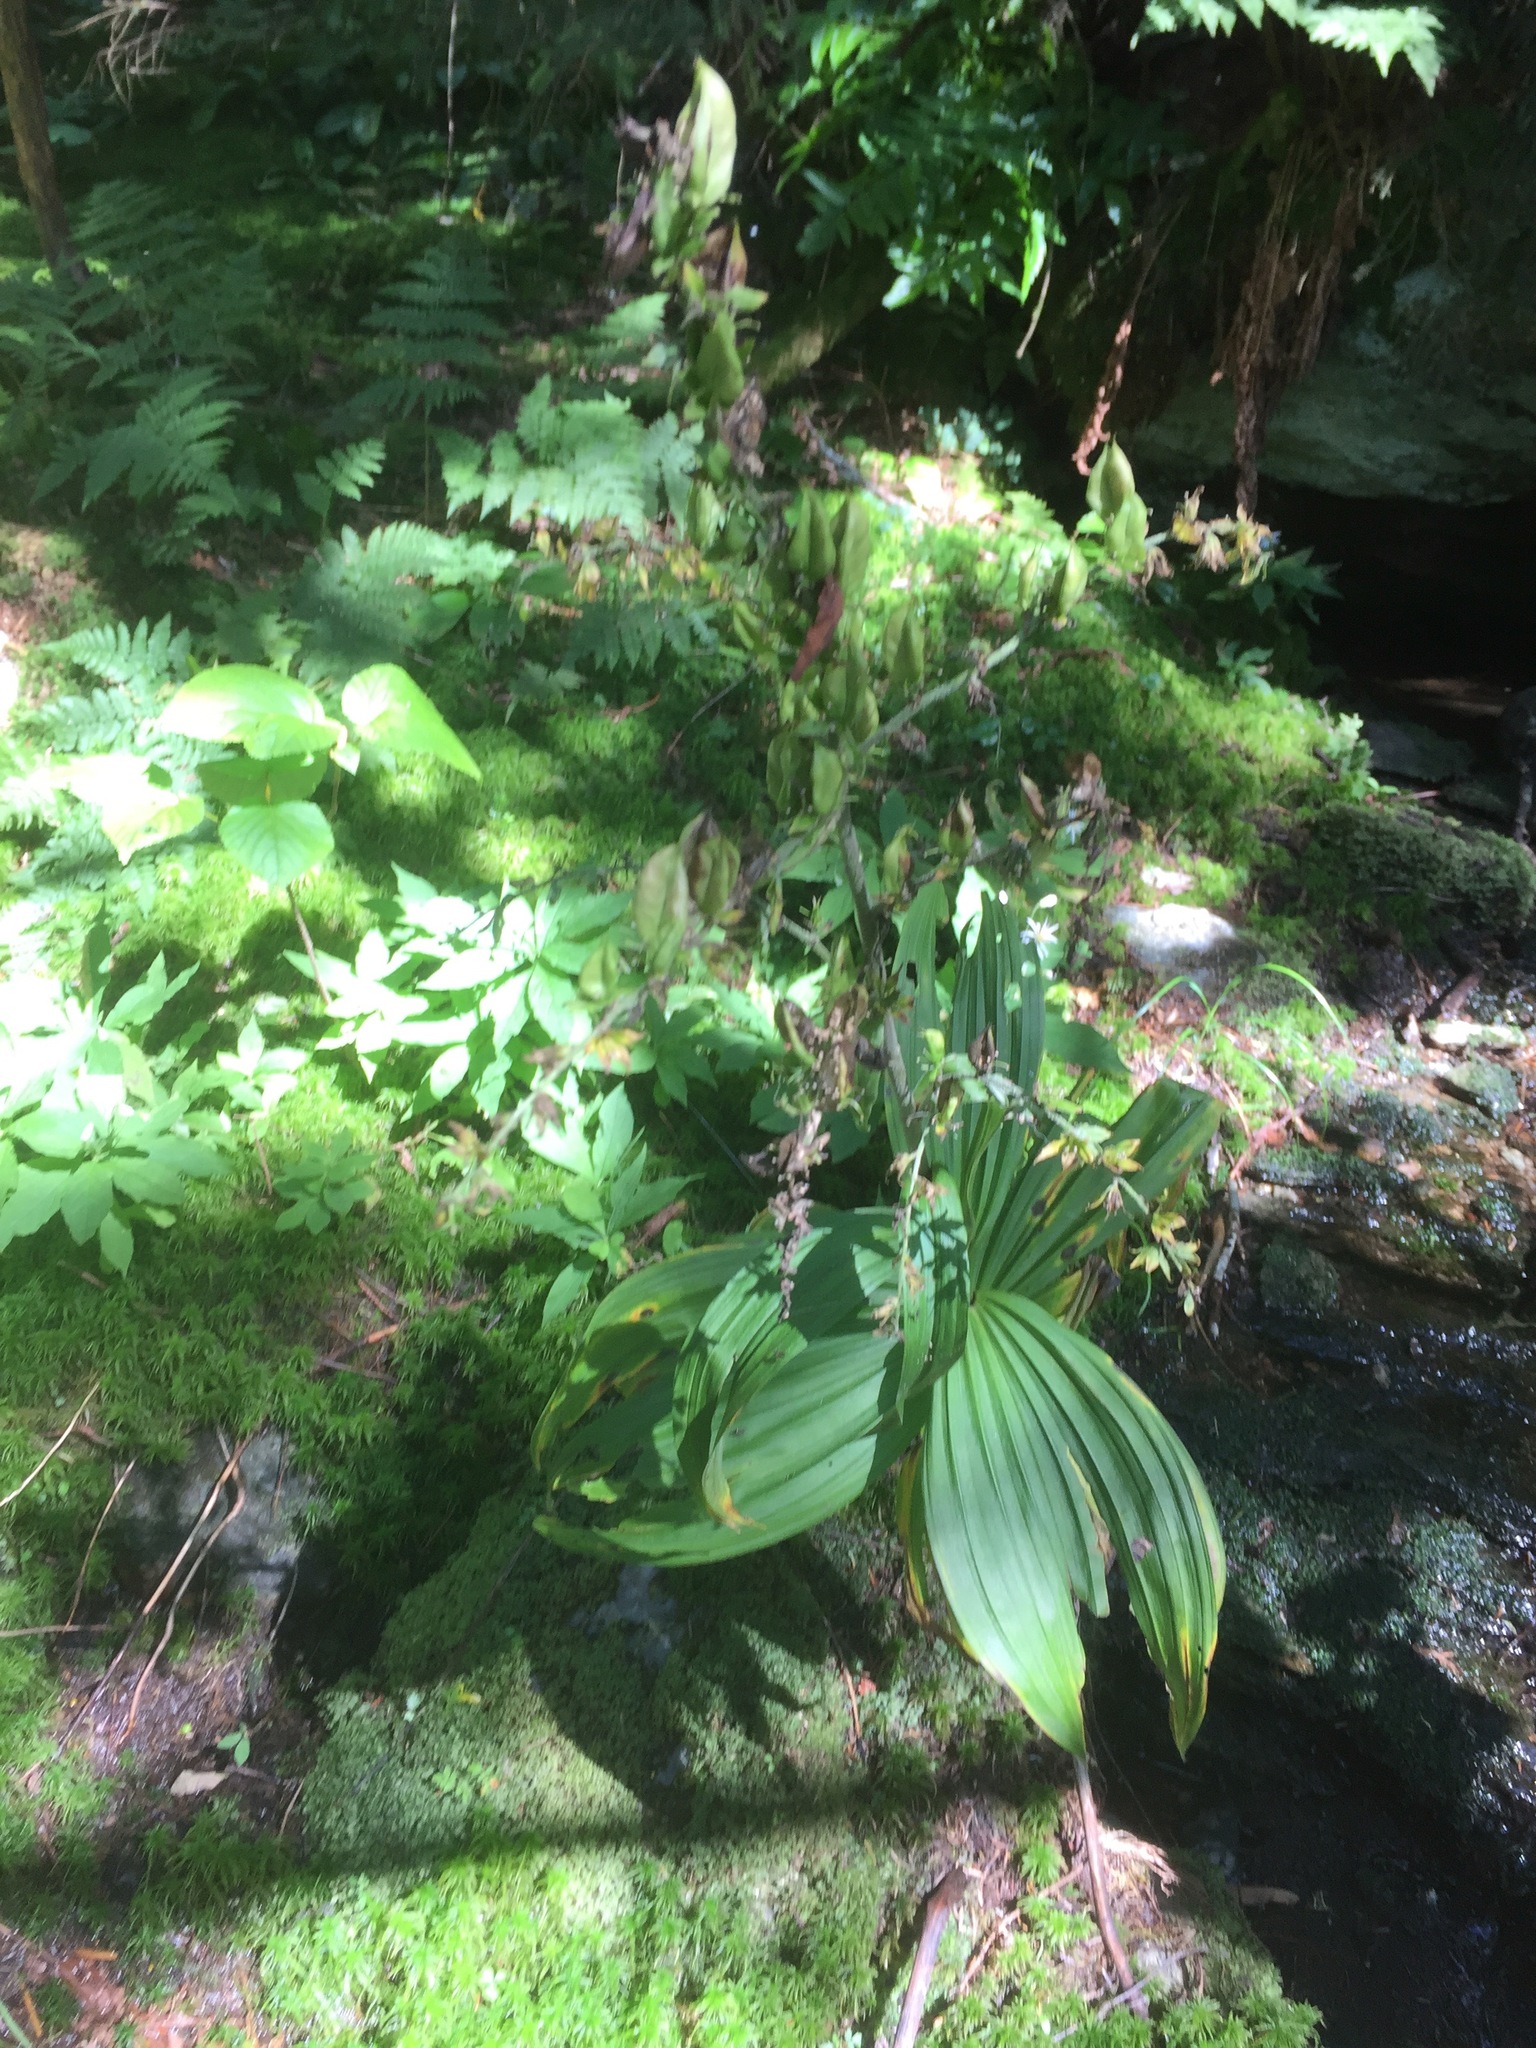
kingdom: Plantae
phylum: Tracheophyta
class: Liliopsida
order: Liliales
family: Melanthiaceae
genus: Veratrum
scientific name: Veratrum viride
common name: American false hellebore
